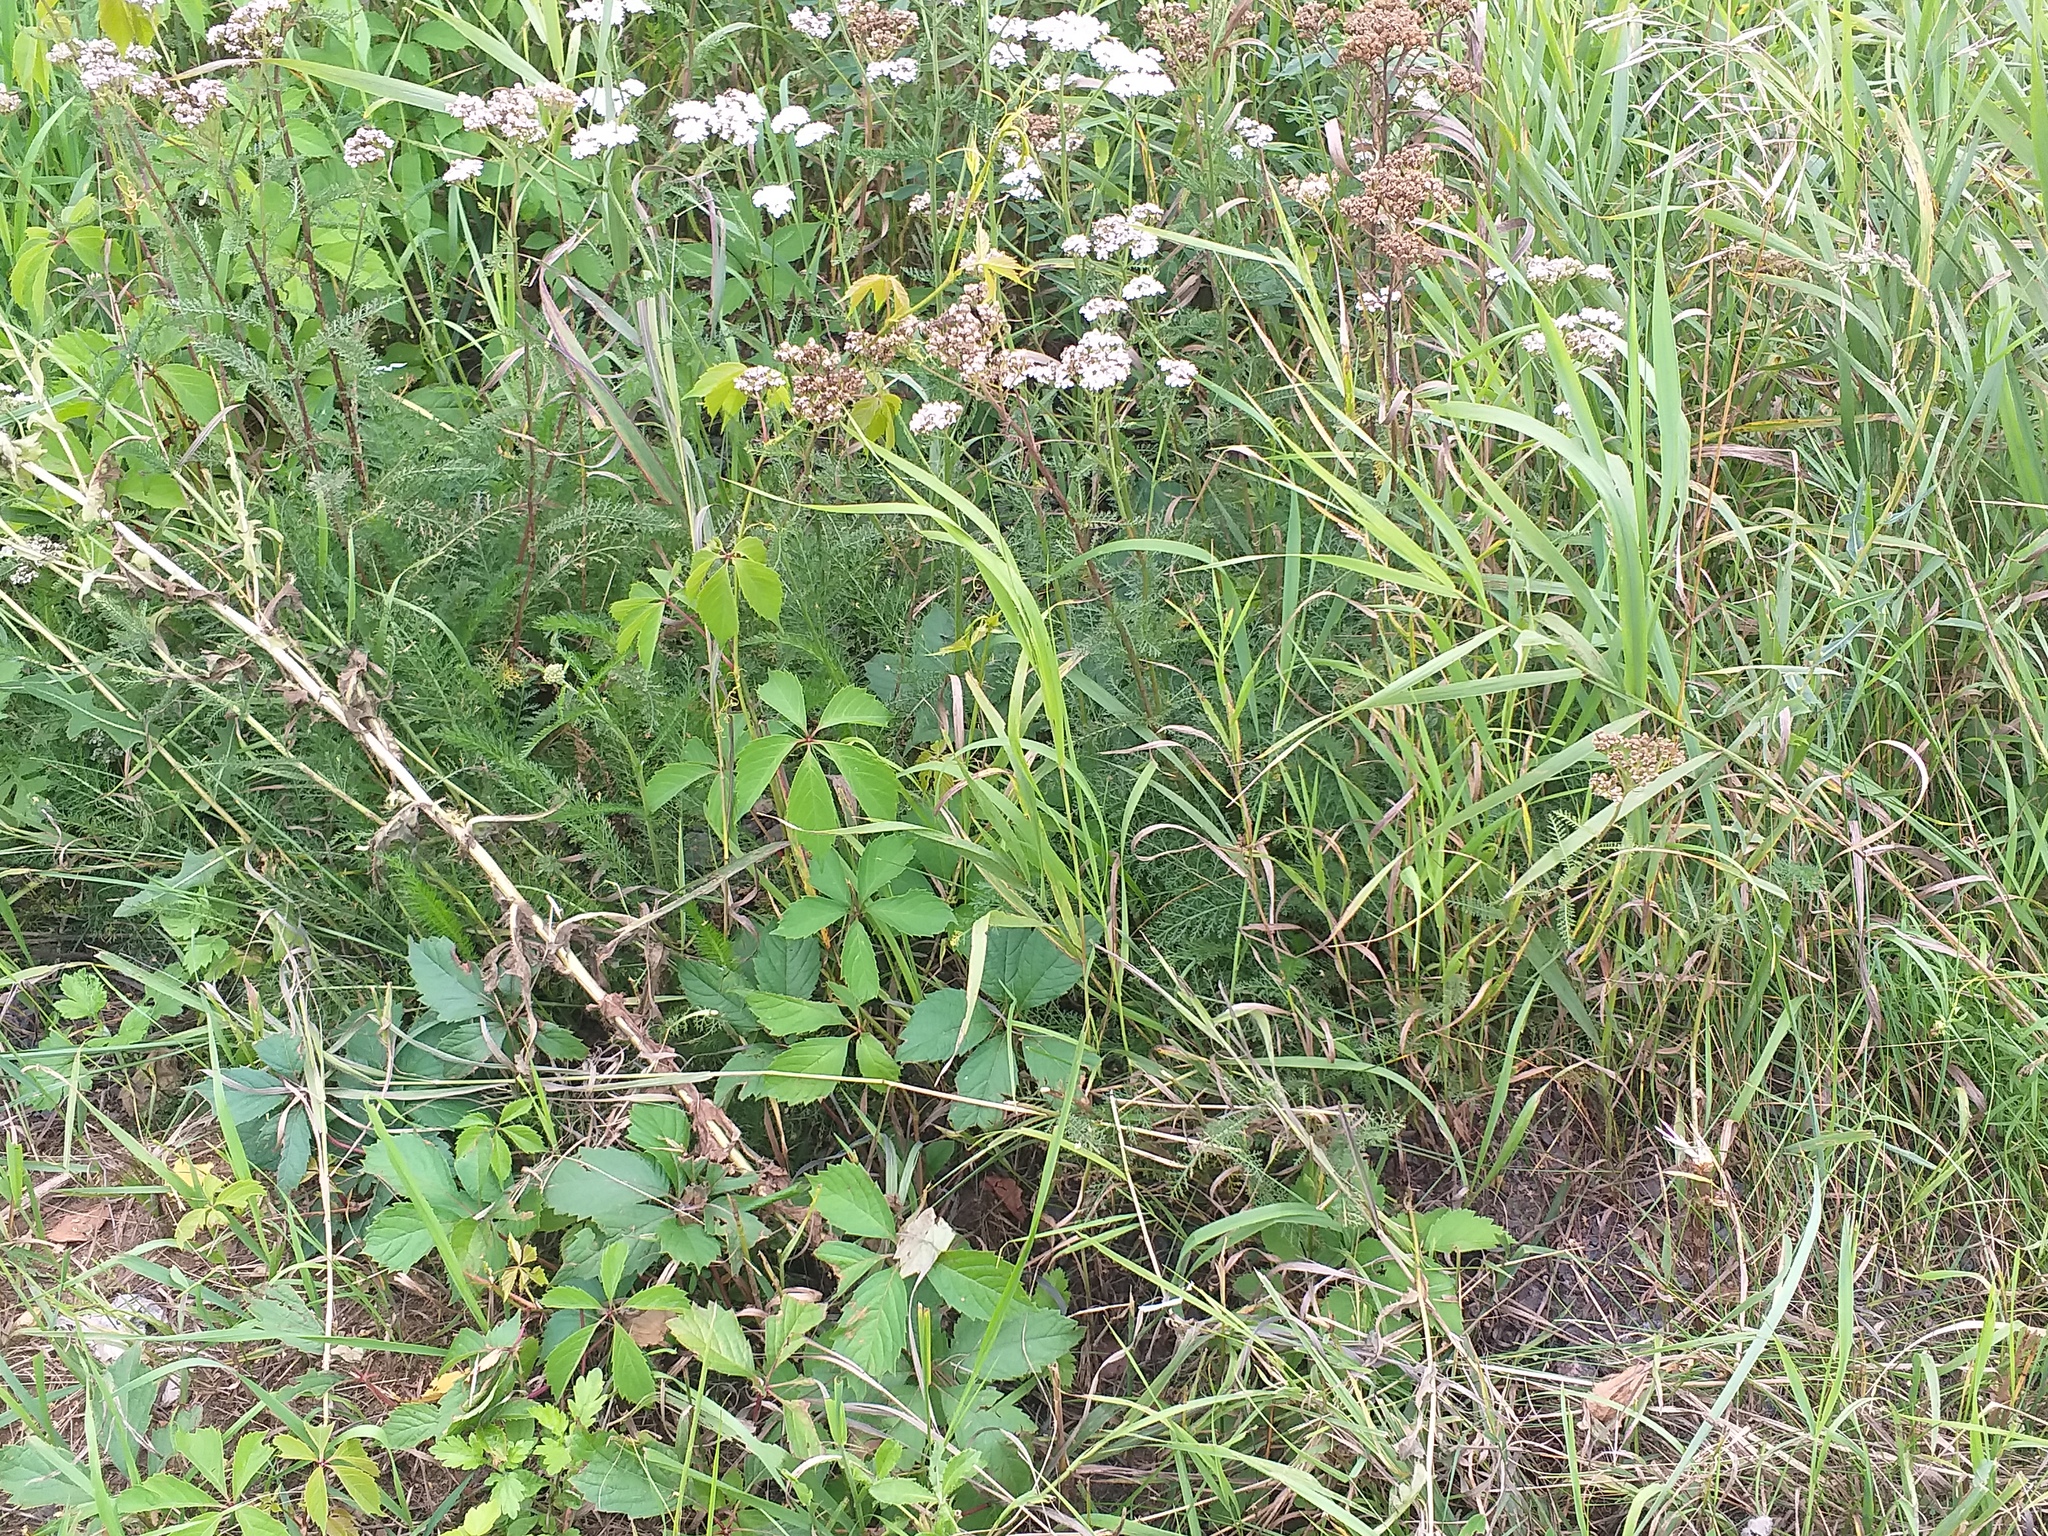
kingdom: Plantae
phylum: Tracheophyta
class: Magnoliopsida
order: Vitales
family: Vitaceae
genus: Parthenocissus
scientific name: Parthenocissus inserta
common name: False virginia-creeper
